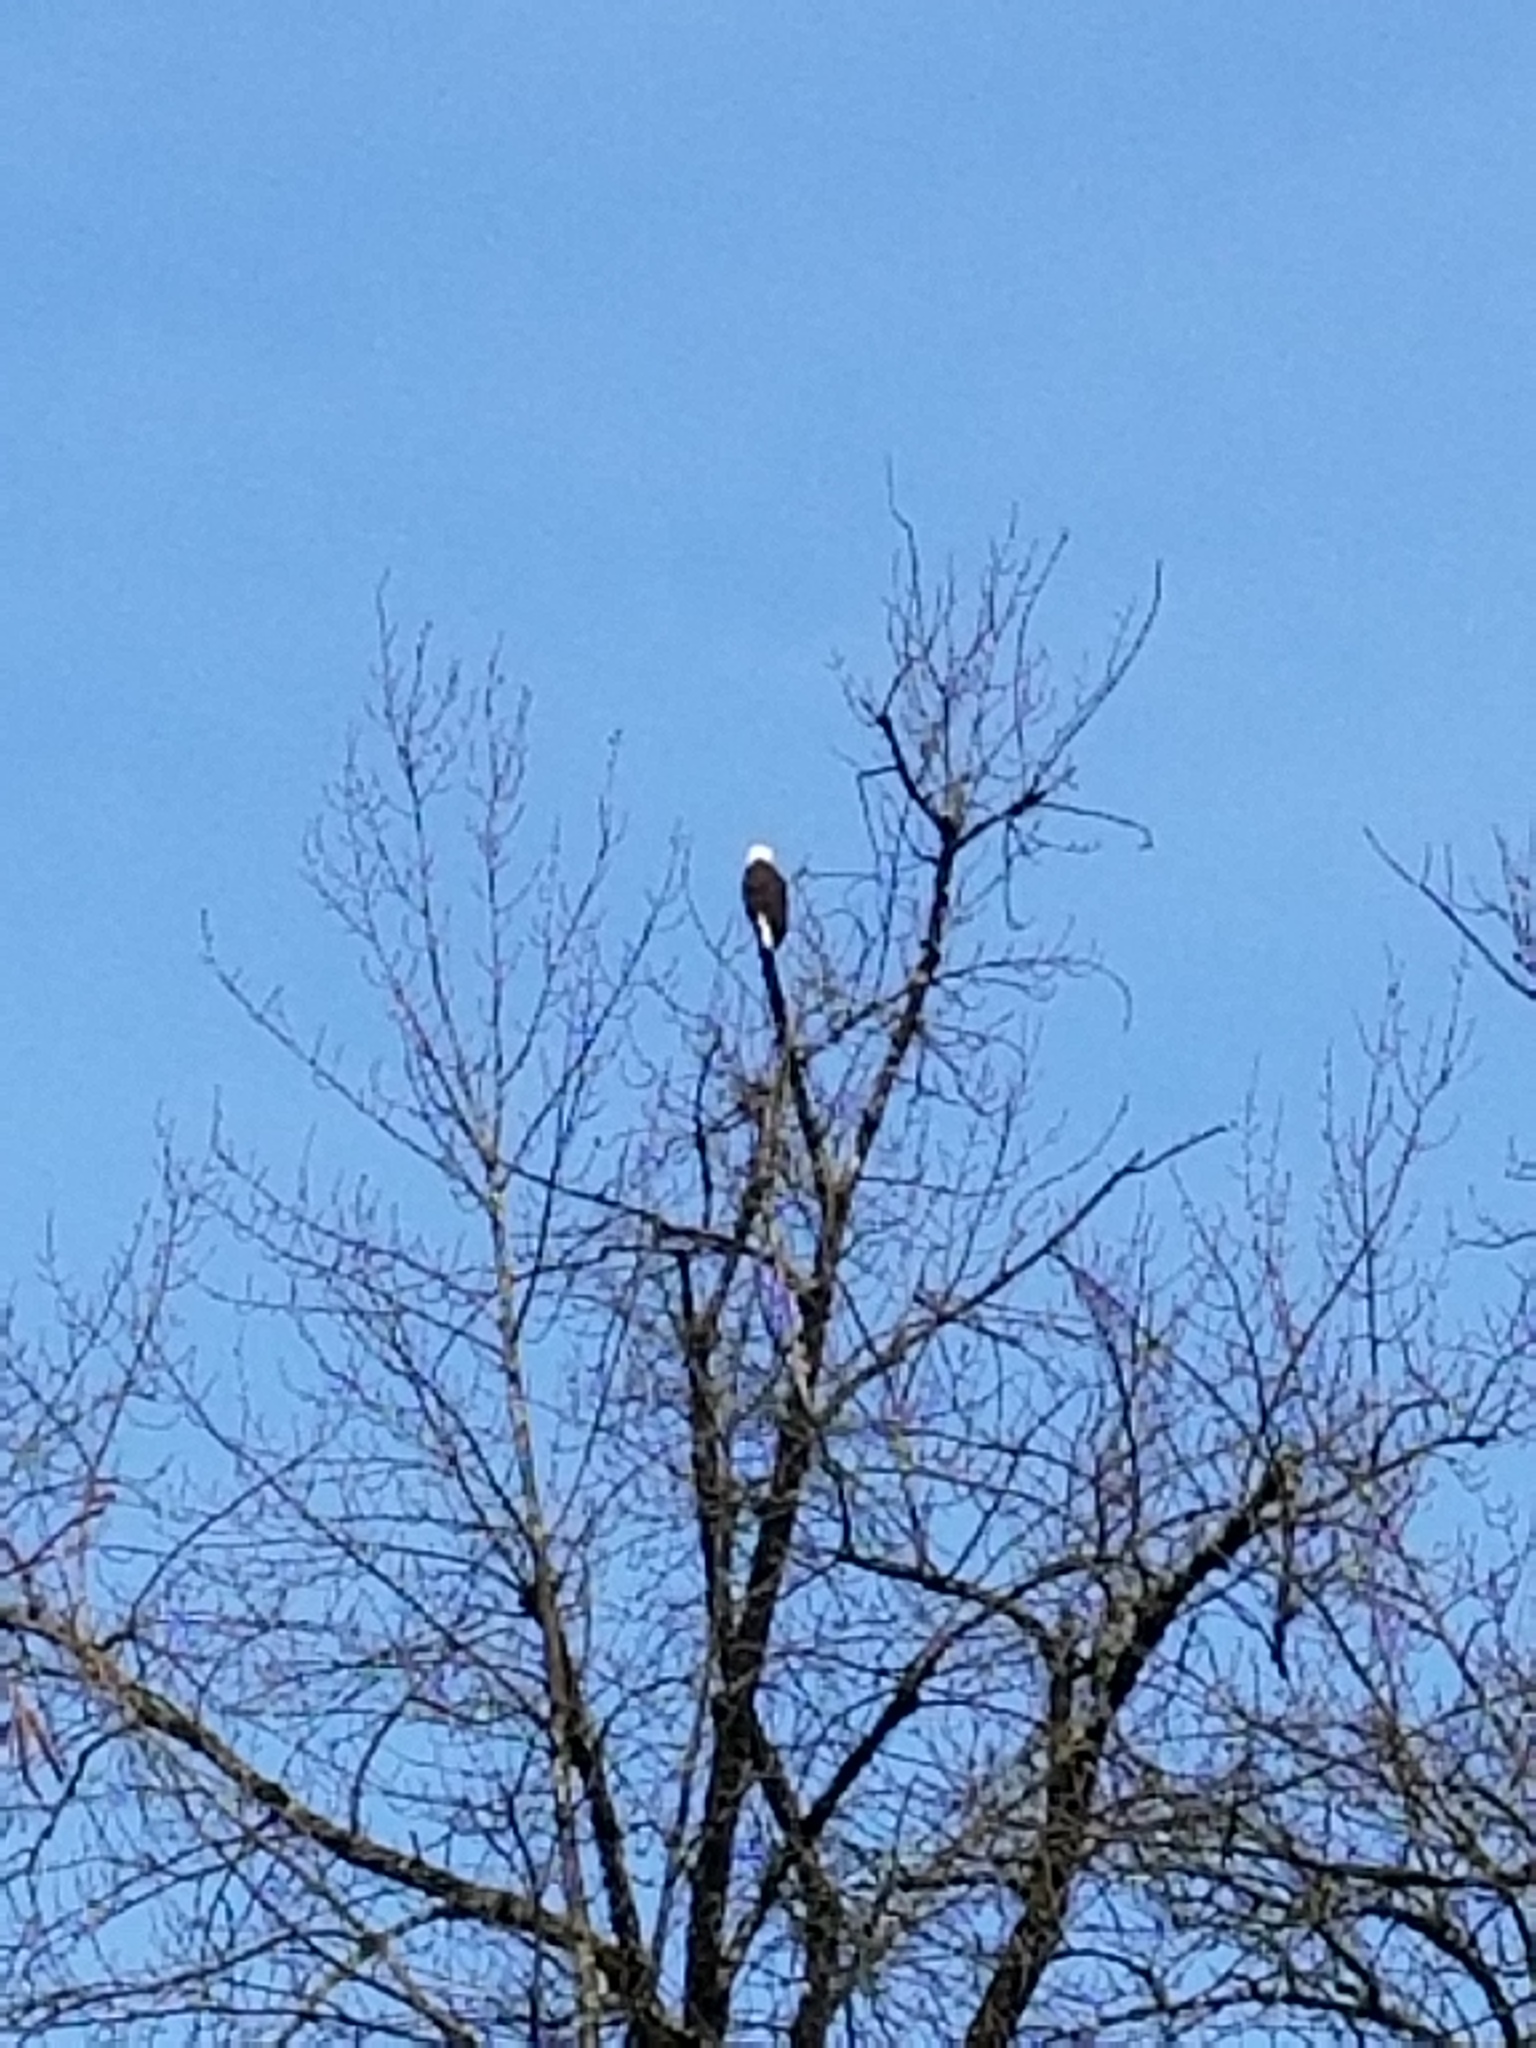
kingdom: Animalia
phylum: Chordata
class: Aves
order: Accipitriformes
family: Accipitridae
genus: Haliaeetus
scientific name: Haliaeetus leucocephalus
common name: Bald eagle
